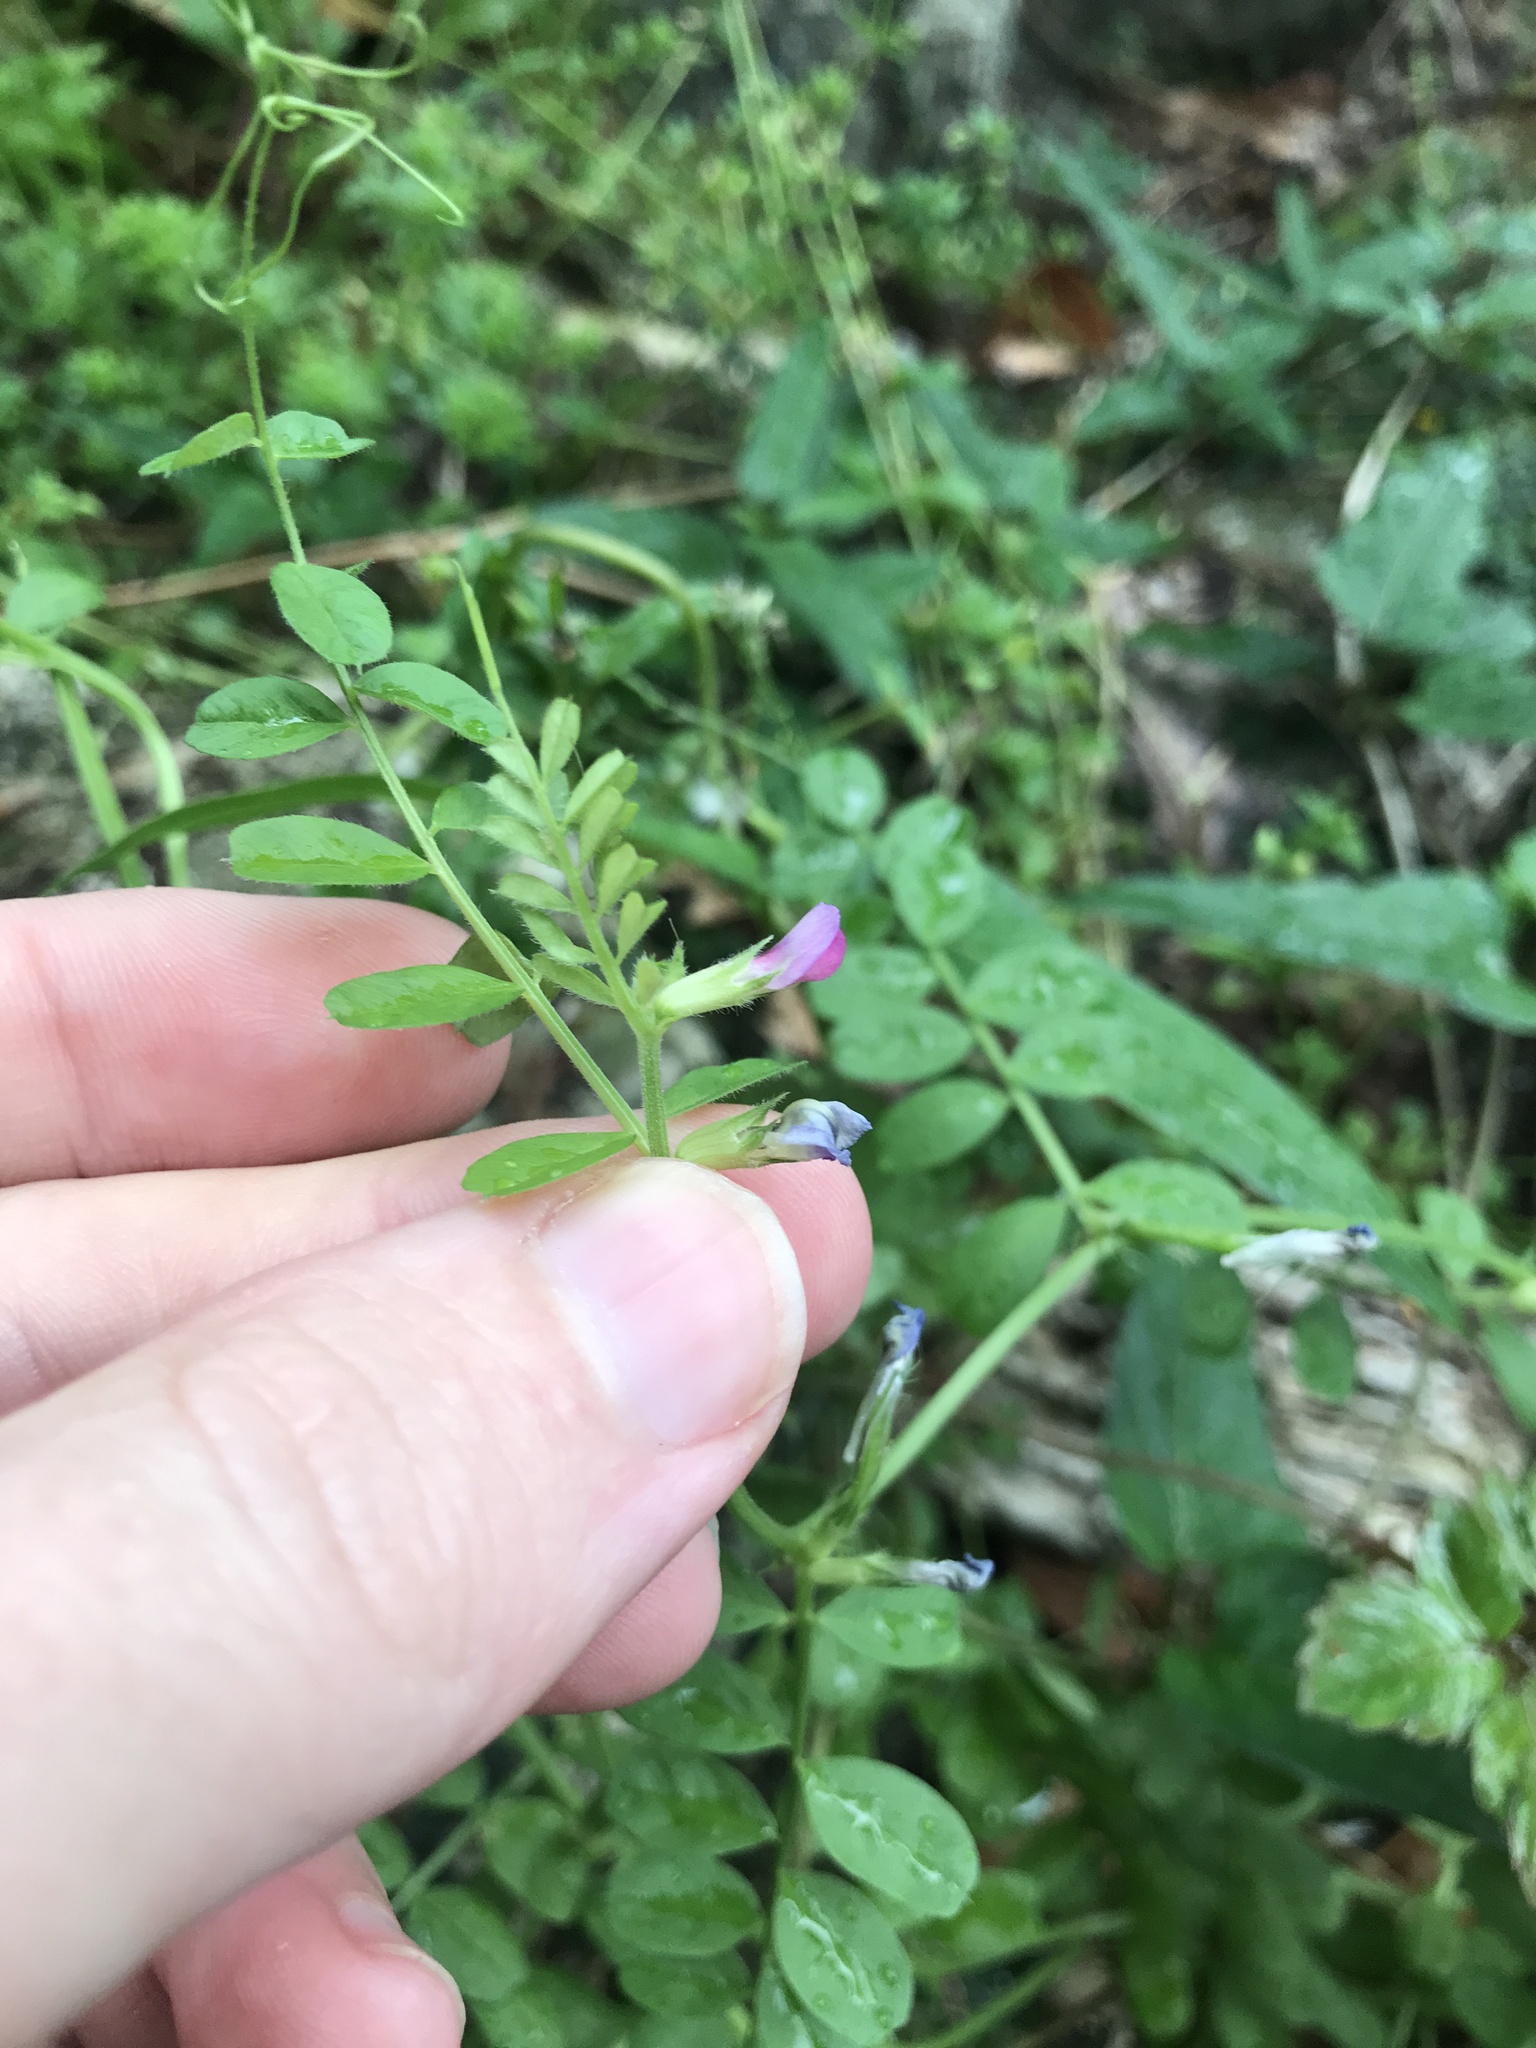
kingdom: Plantae
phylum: Tracheophyta
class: Magnoliopsida
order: Fabales
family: Fabaceae
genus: Vicia
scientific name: Vicia sativa
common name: Garden vetch
